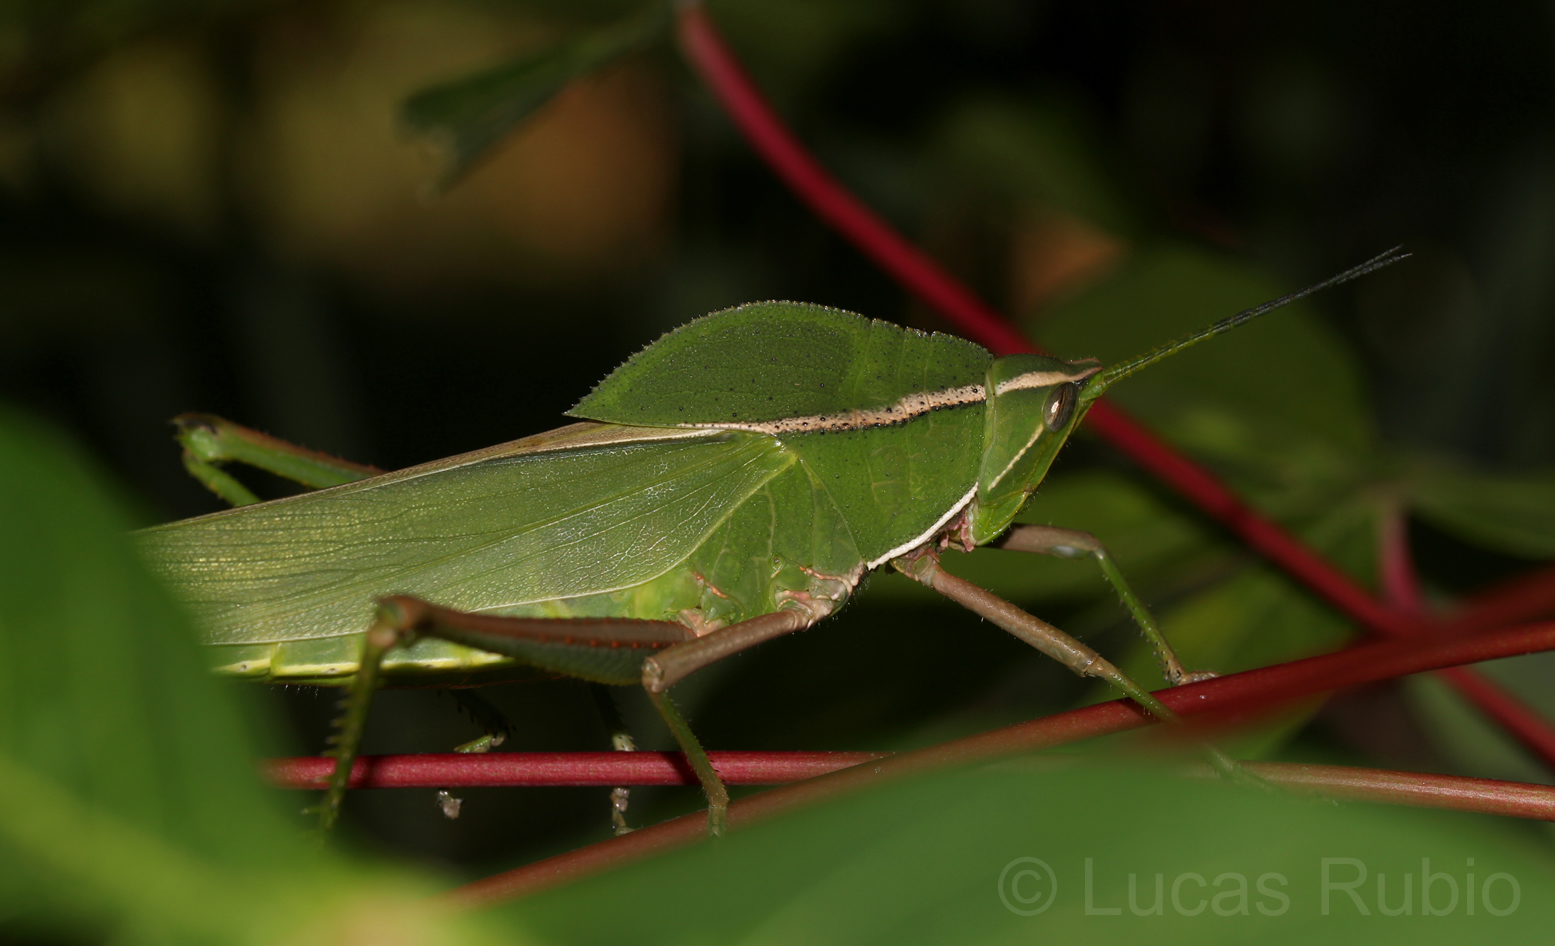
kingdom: Animalia
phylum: Arthropoda
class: Insecta
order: Orthoptera
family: Romaleidae
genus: Prionolopha
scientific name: Prionolopha serrata
